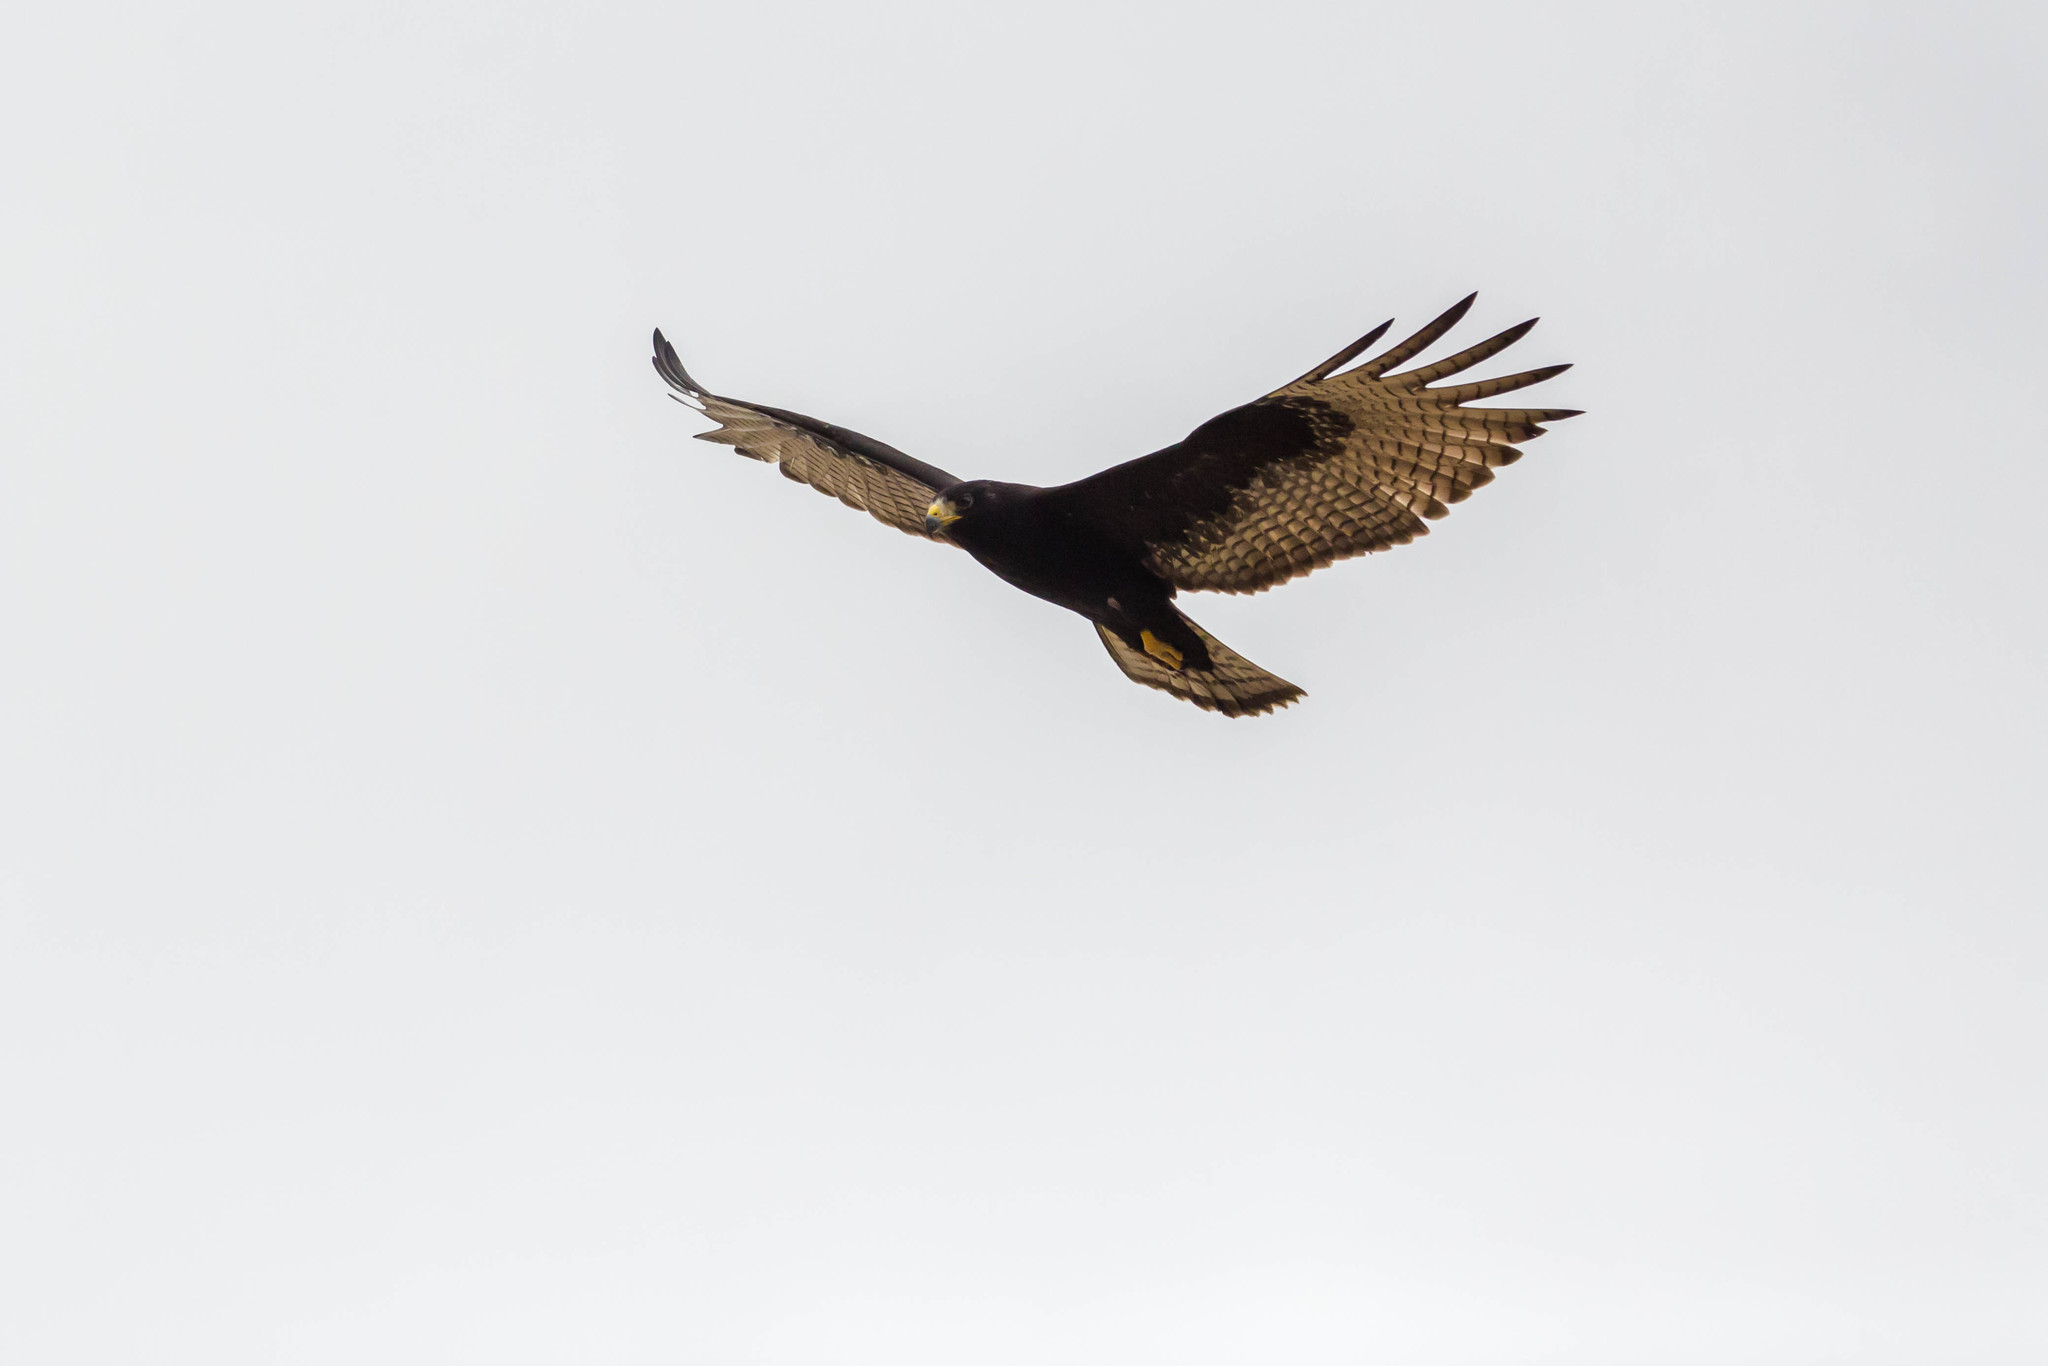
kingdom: Animalia
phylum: Chordata
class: Aves
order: Accipitriformes
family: Accipitridae
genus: Buteo
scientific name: Buteo albonotatus
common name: Zone-tailed hawk
